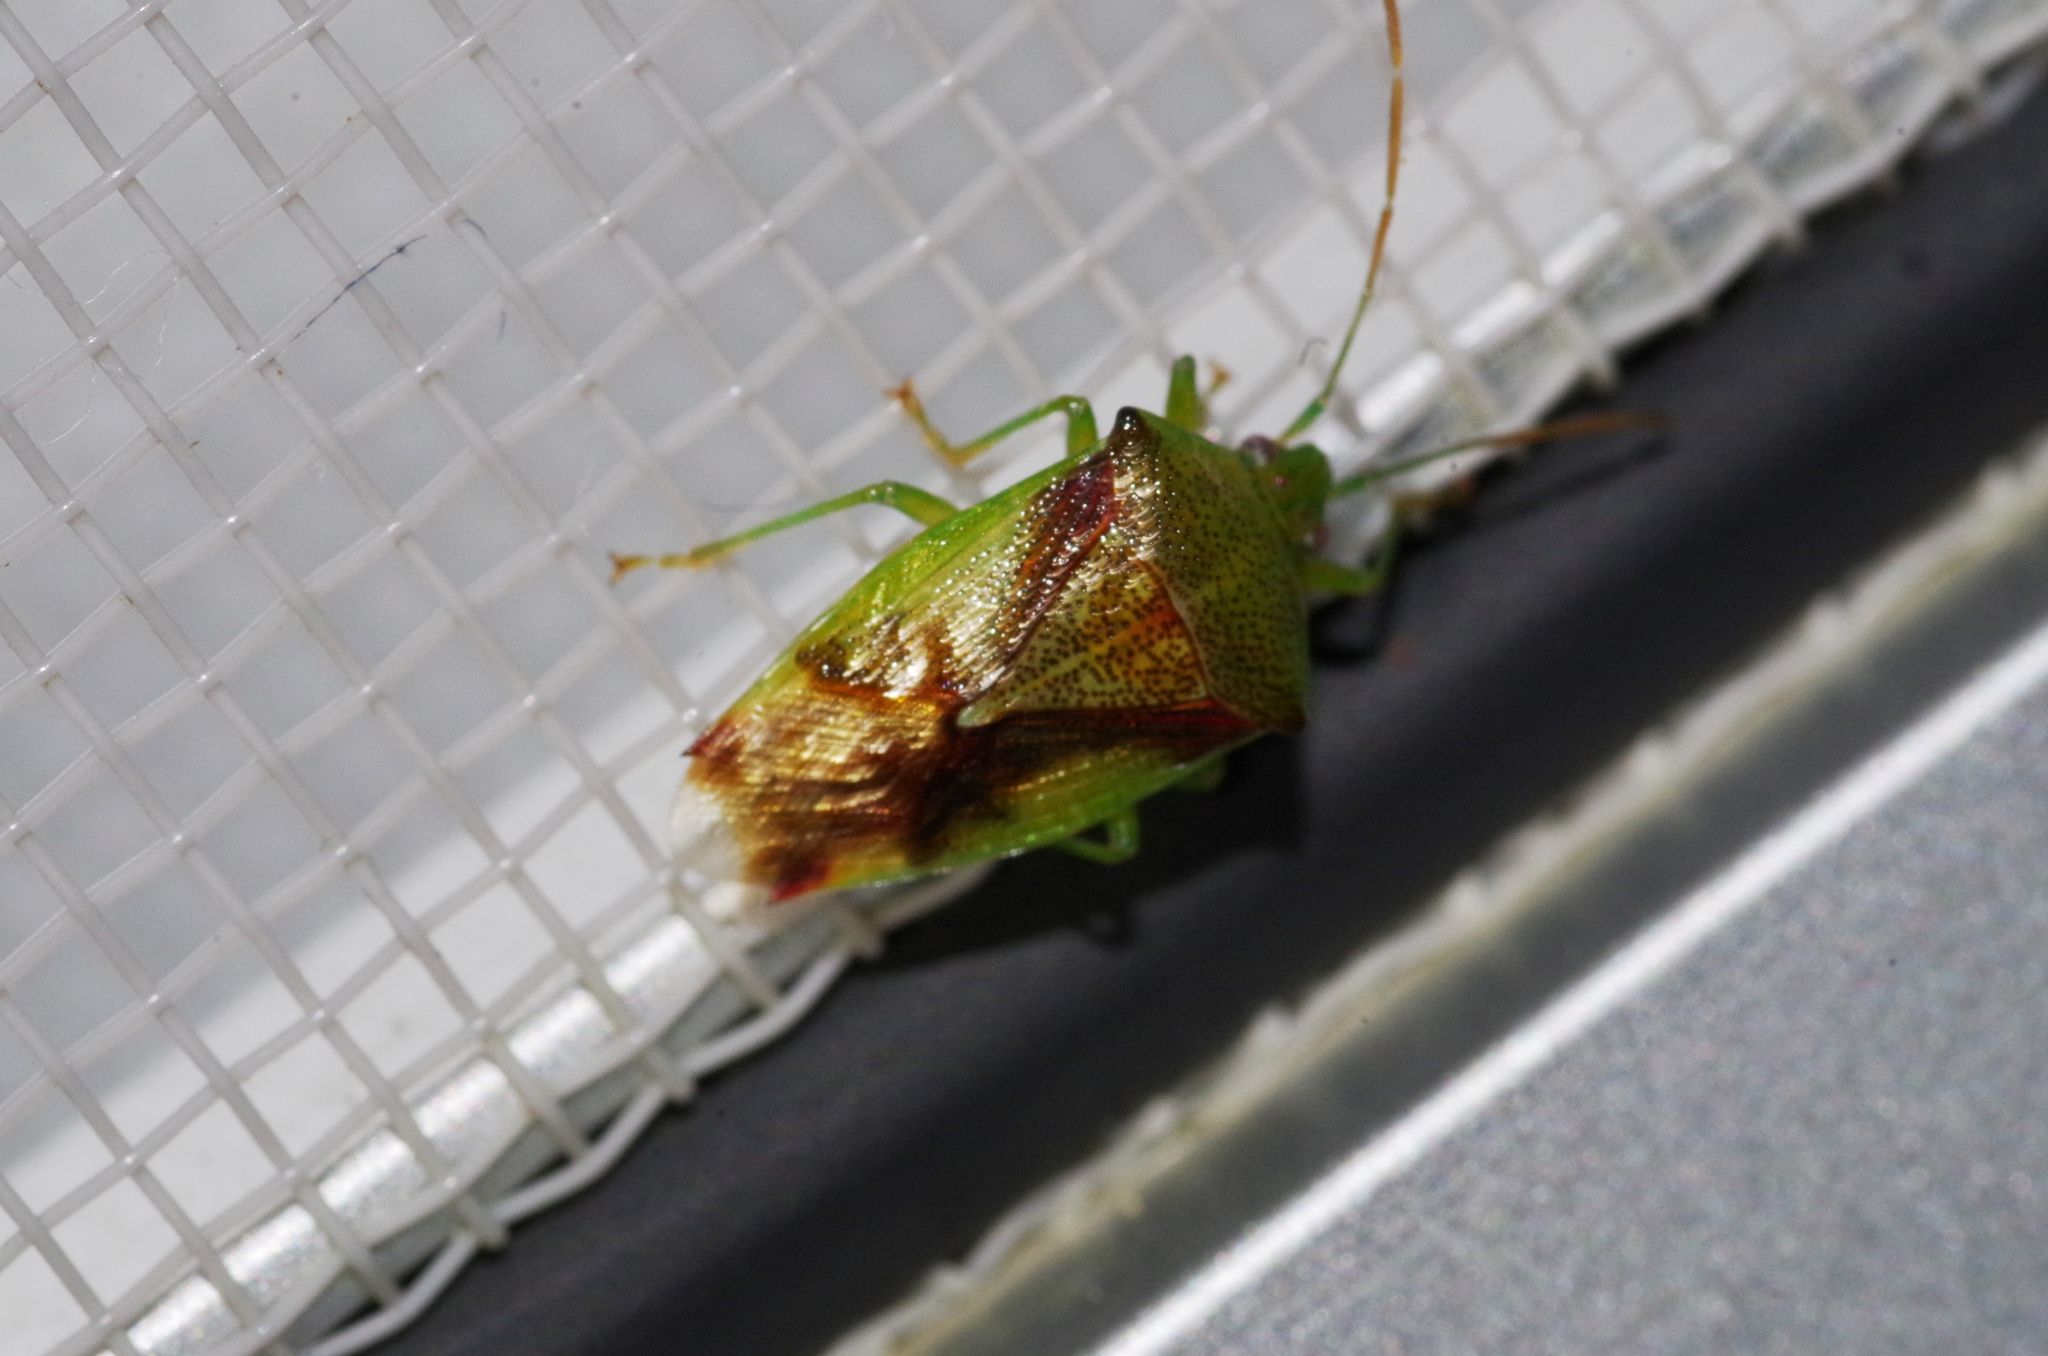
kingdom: Animalia
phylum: Arthropoda
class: Insecta
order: Hemiptera
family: Acanthosomatidae
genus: Elasmostethus
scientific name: Elasmostethus nubilus
